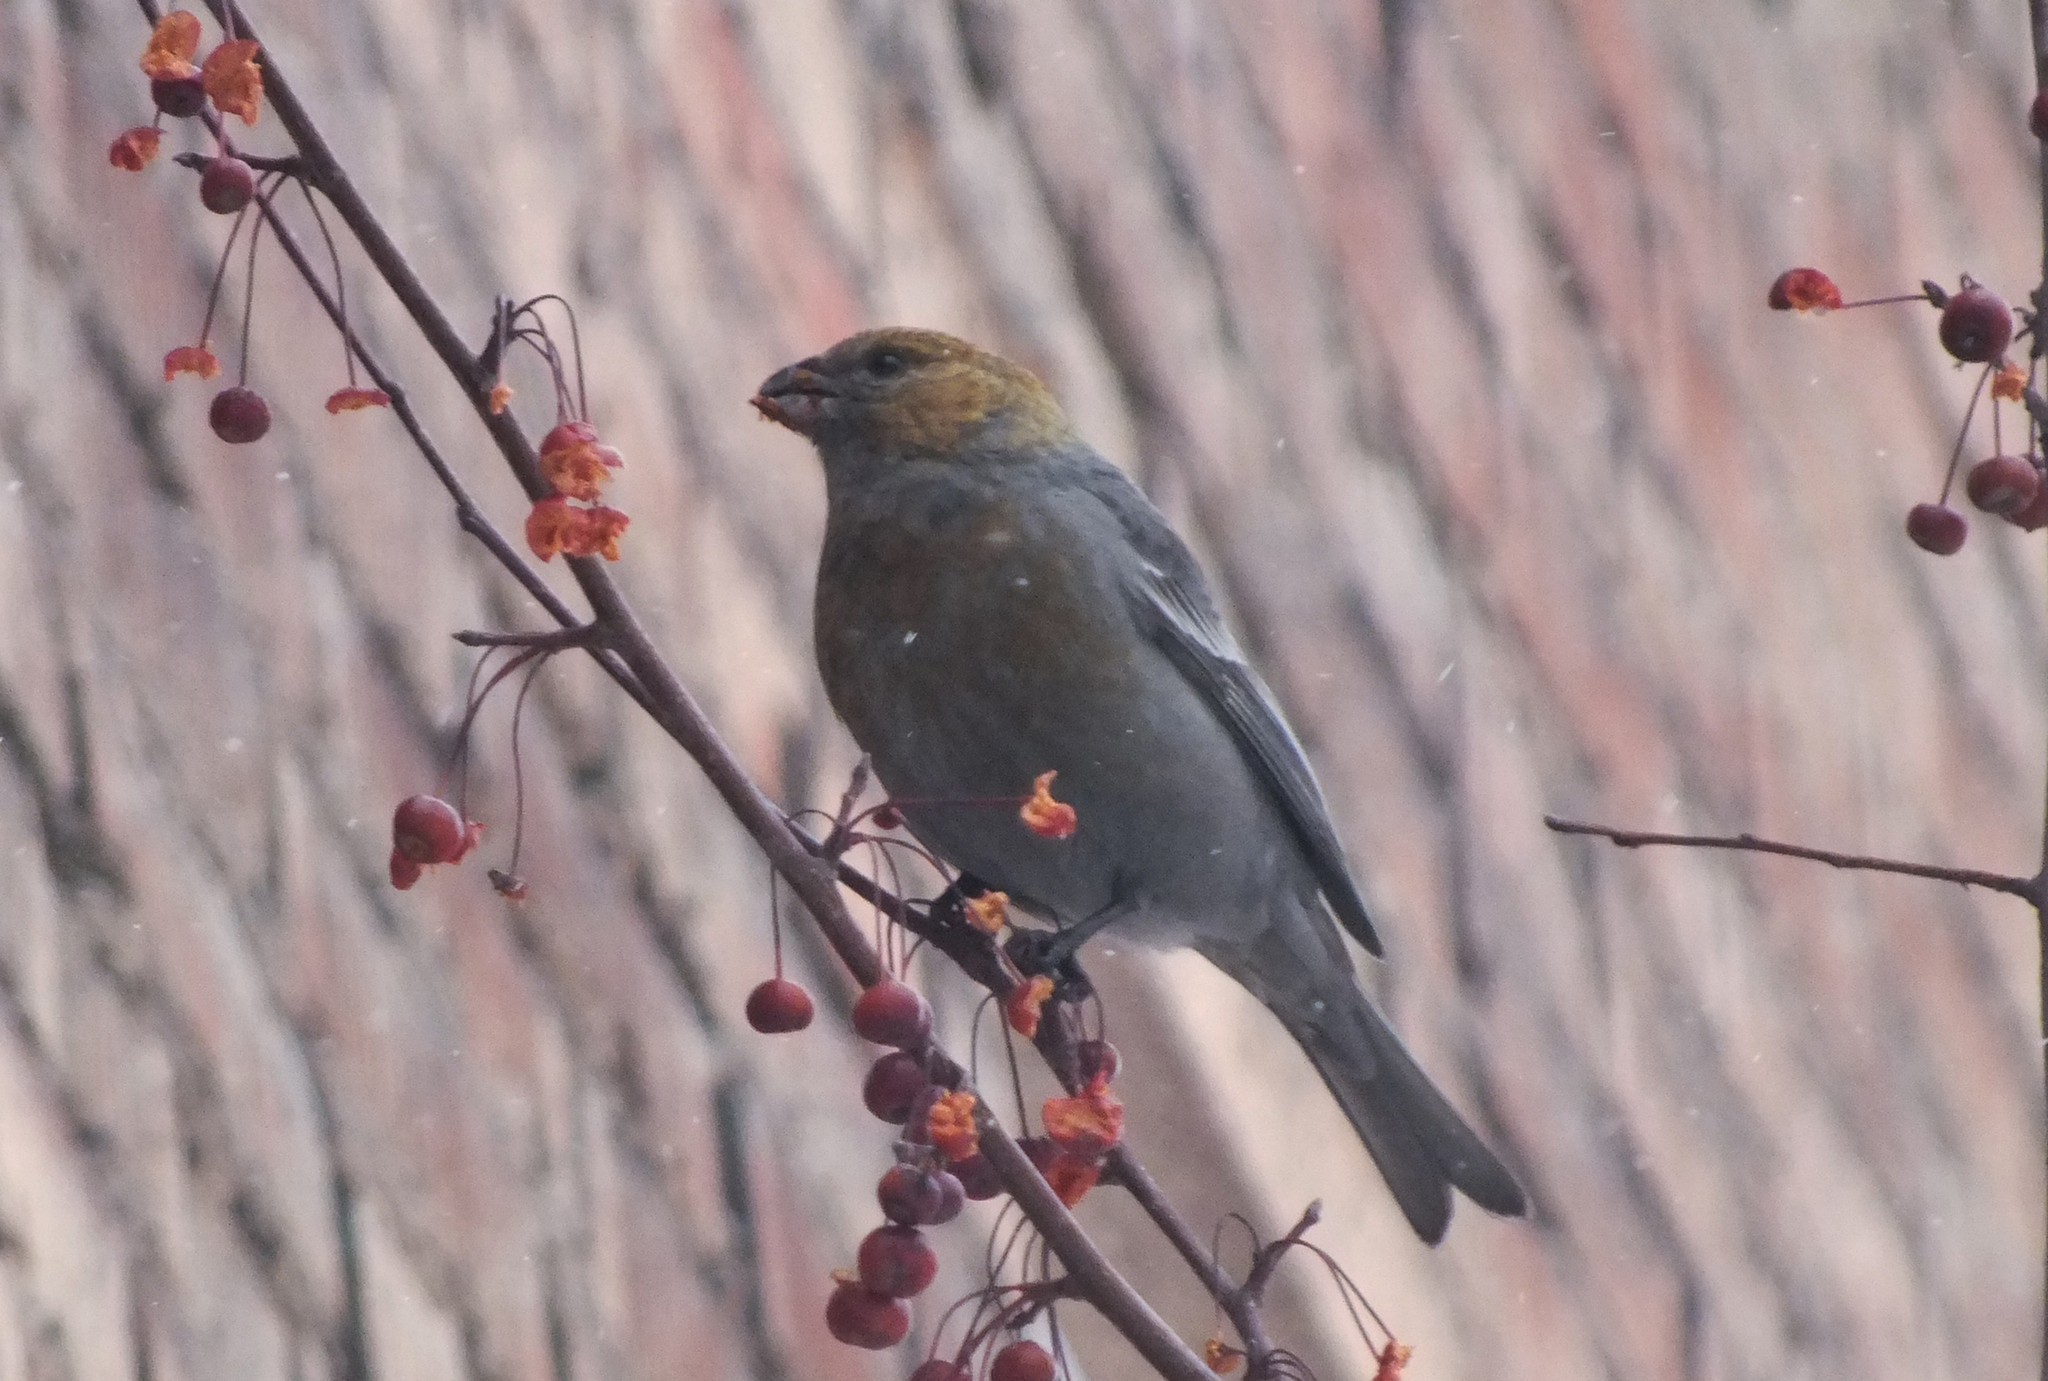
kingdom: Animalia
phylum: Chordata
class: Aves
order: Passeriformes
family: Fringillidae
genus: Pinicola
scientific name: Pinicola enucleator
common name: Pine grosbeak
